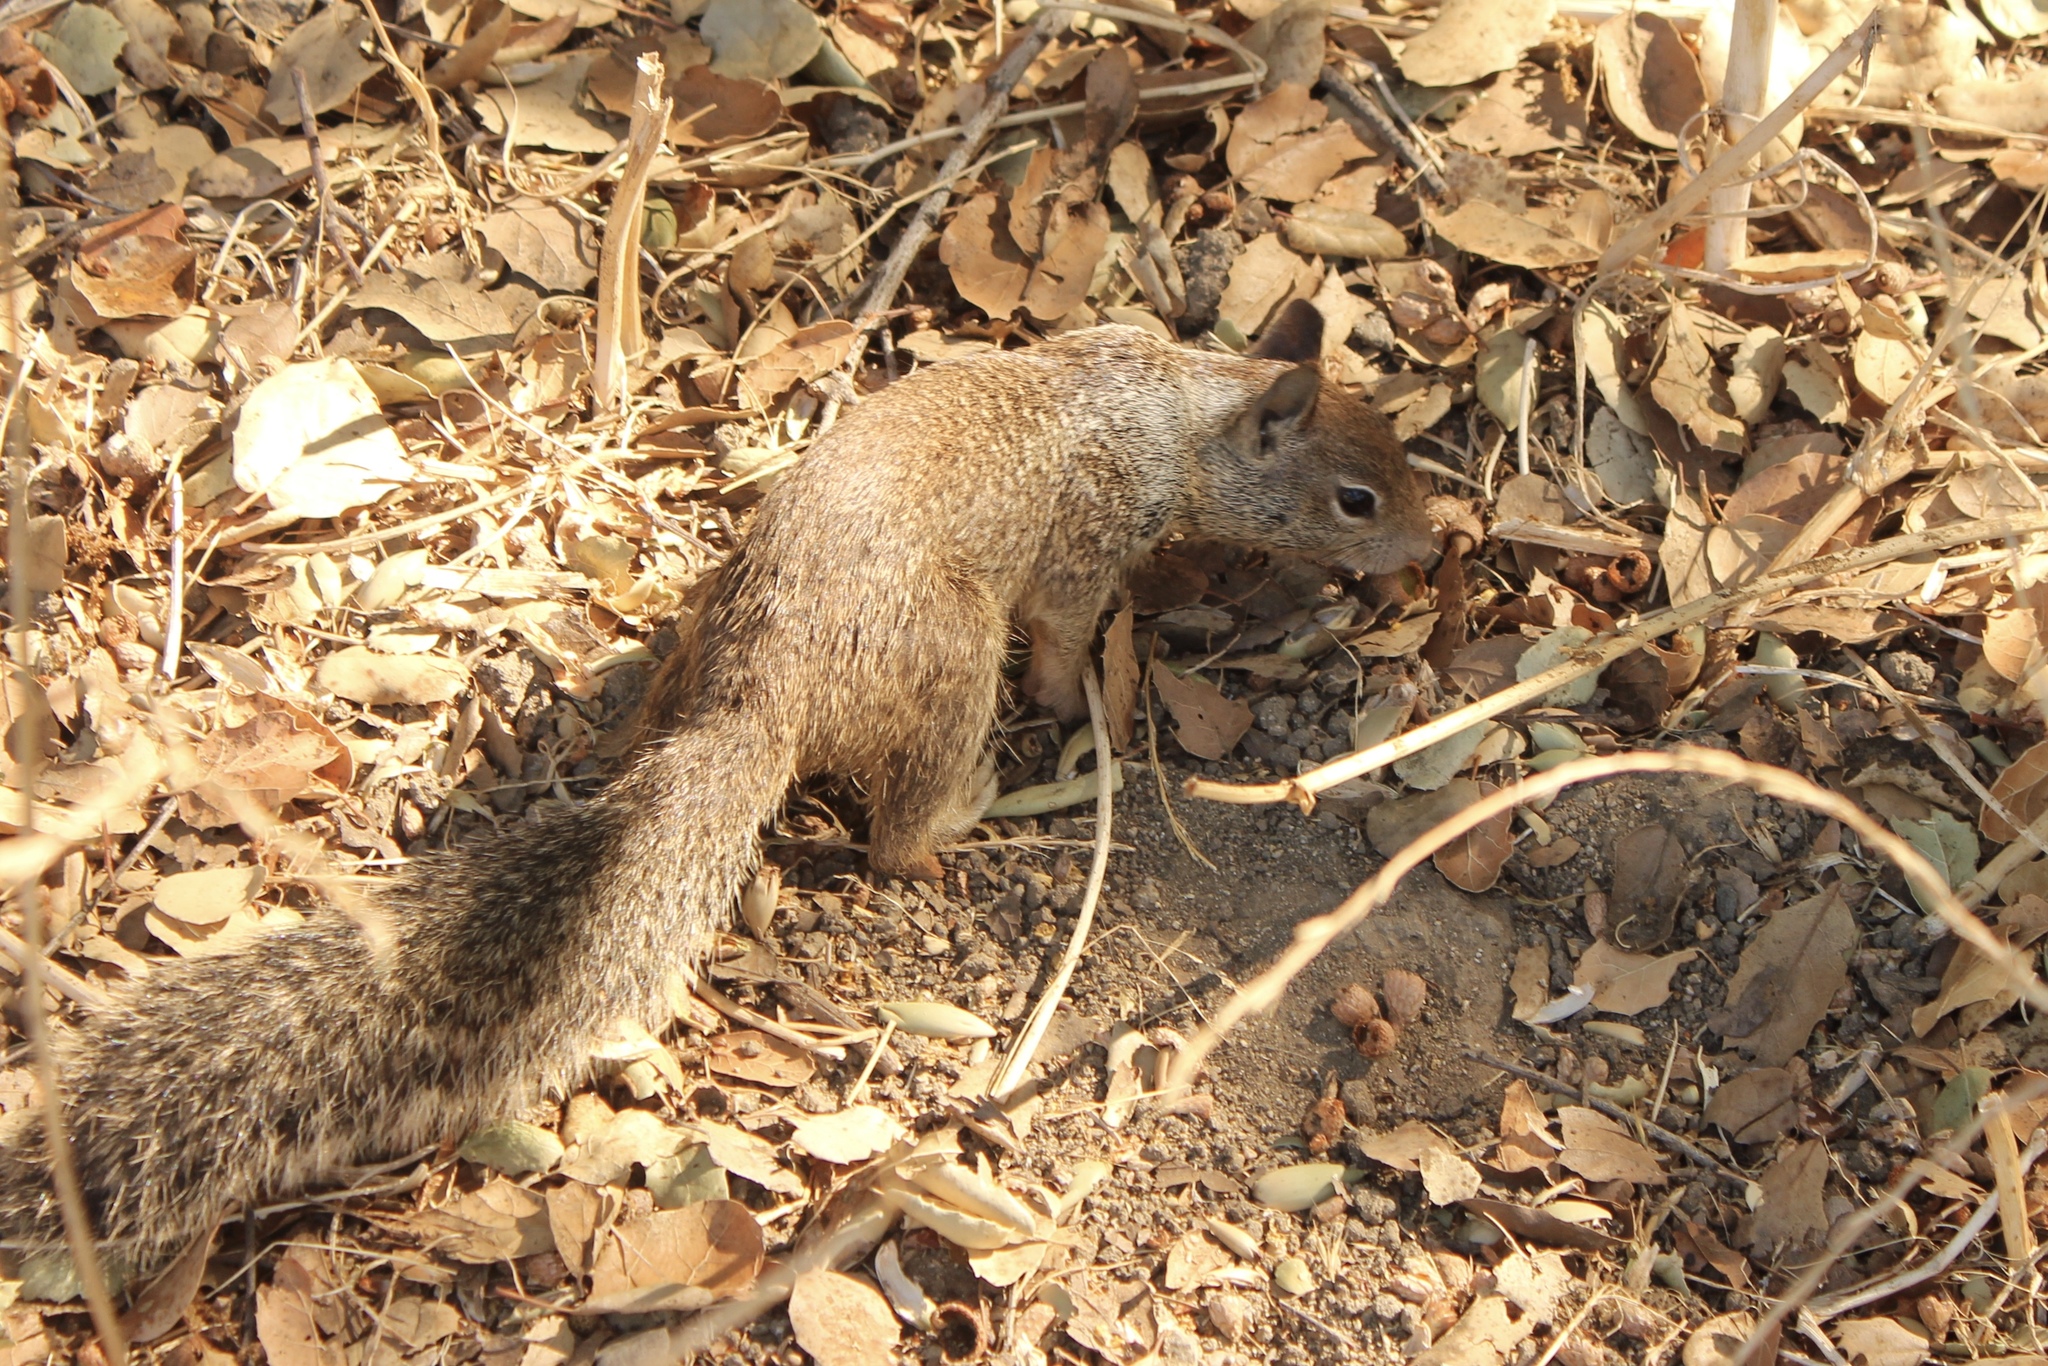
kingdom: Animalia
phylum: Chordata
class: Mammalia
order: Rodentia
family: Sciuridae
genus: Otospermophilus
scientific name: Otospermophilus beecheyi
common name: California ground squirrel
